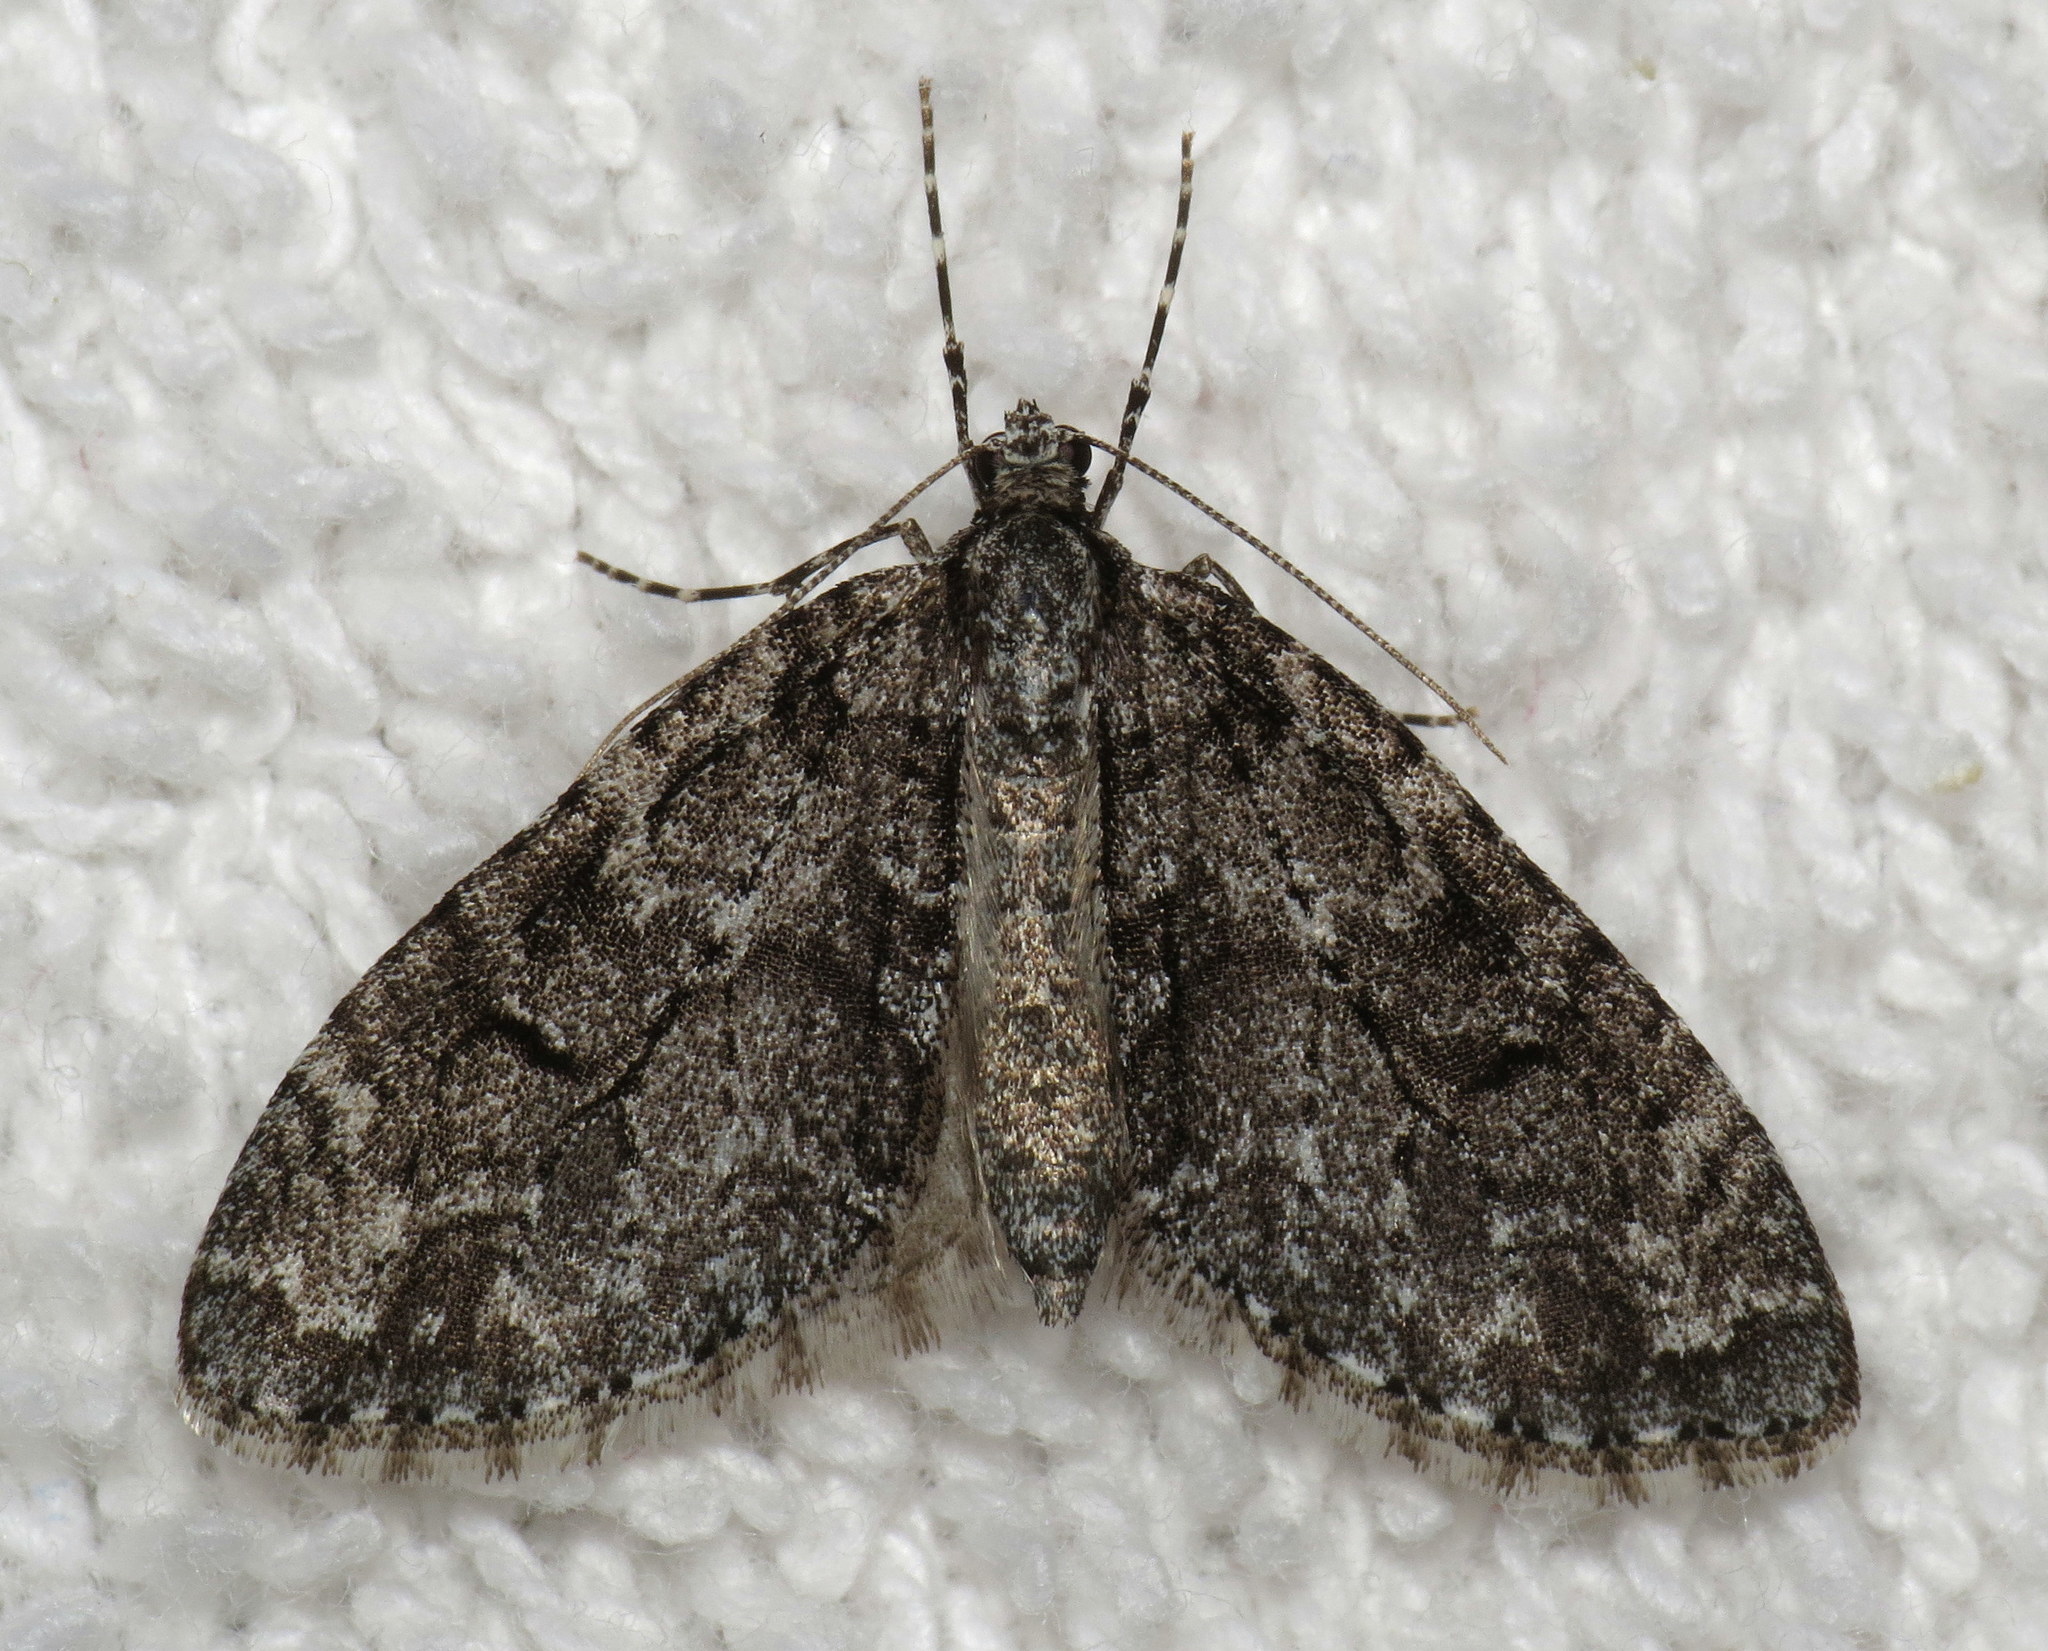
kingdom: Animalia
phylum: Arthropoda
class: Insecta
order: Lepidoptera
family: Geometridae
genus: Cladara
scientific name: Cladara limitaria
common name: Mottled gray carpet
